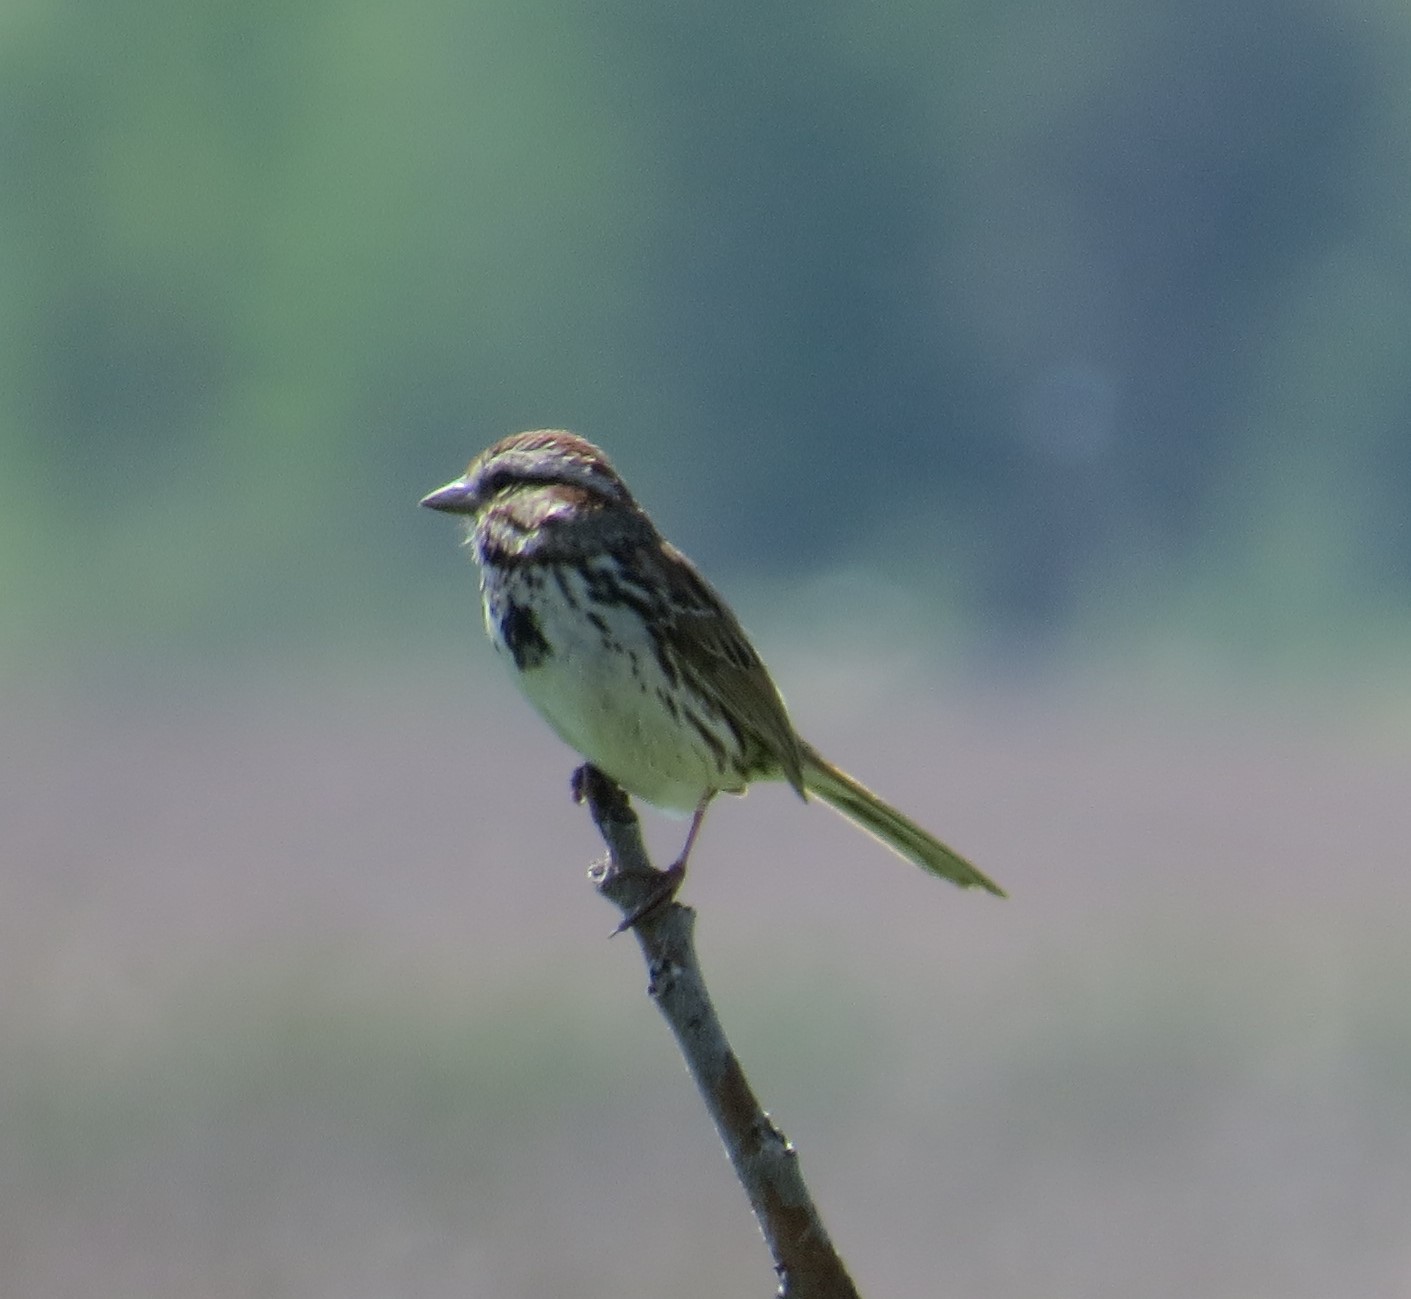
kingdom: Animalia
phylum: Chordata
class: Aves
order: Passeriformes
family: Passerellidae
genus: Melospiza
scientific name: Melospiza melodia
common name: Song sparrow
